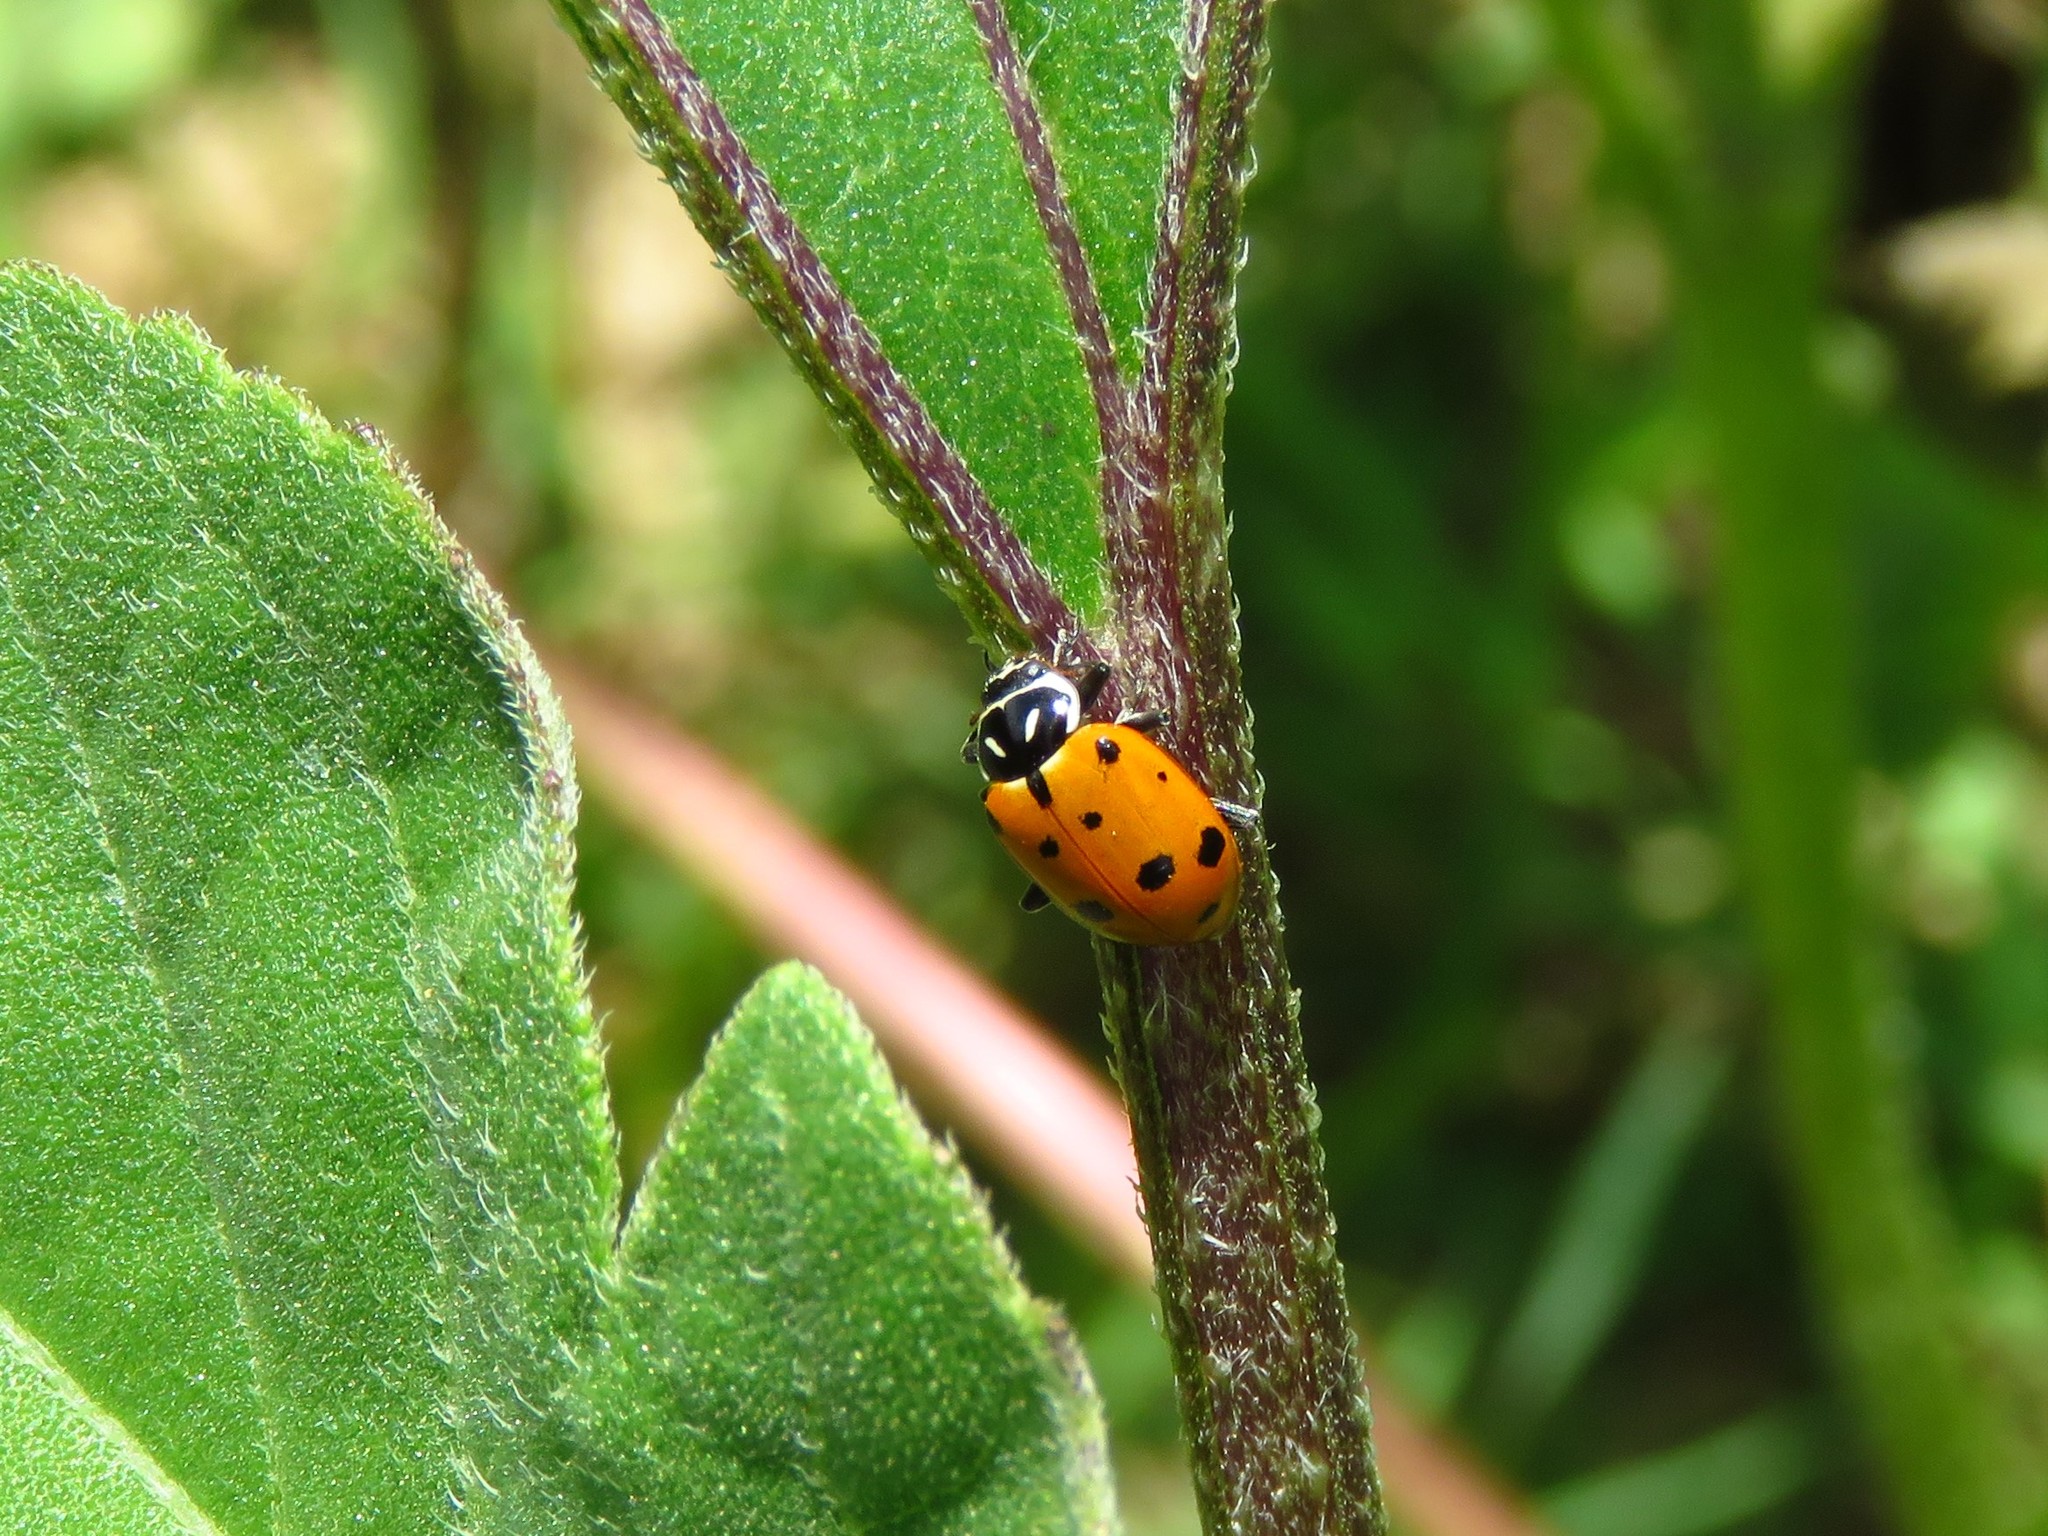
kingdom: Animalia
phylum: Arthropoda
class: Insecta
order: Coleoptera
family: Coccinellidae
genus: Hippodamia
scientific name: Hippodamia convergens
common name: Convergent lady beetle
